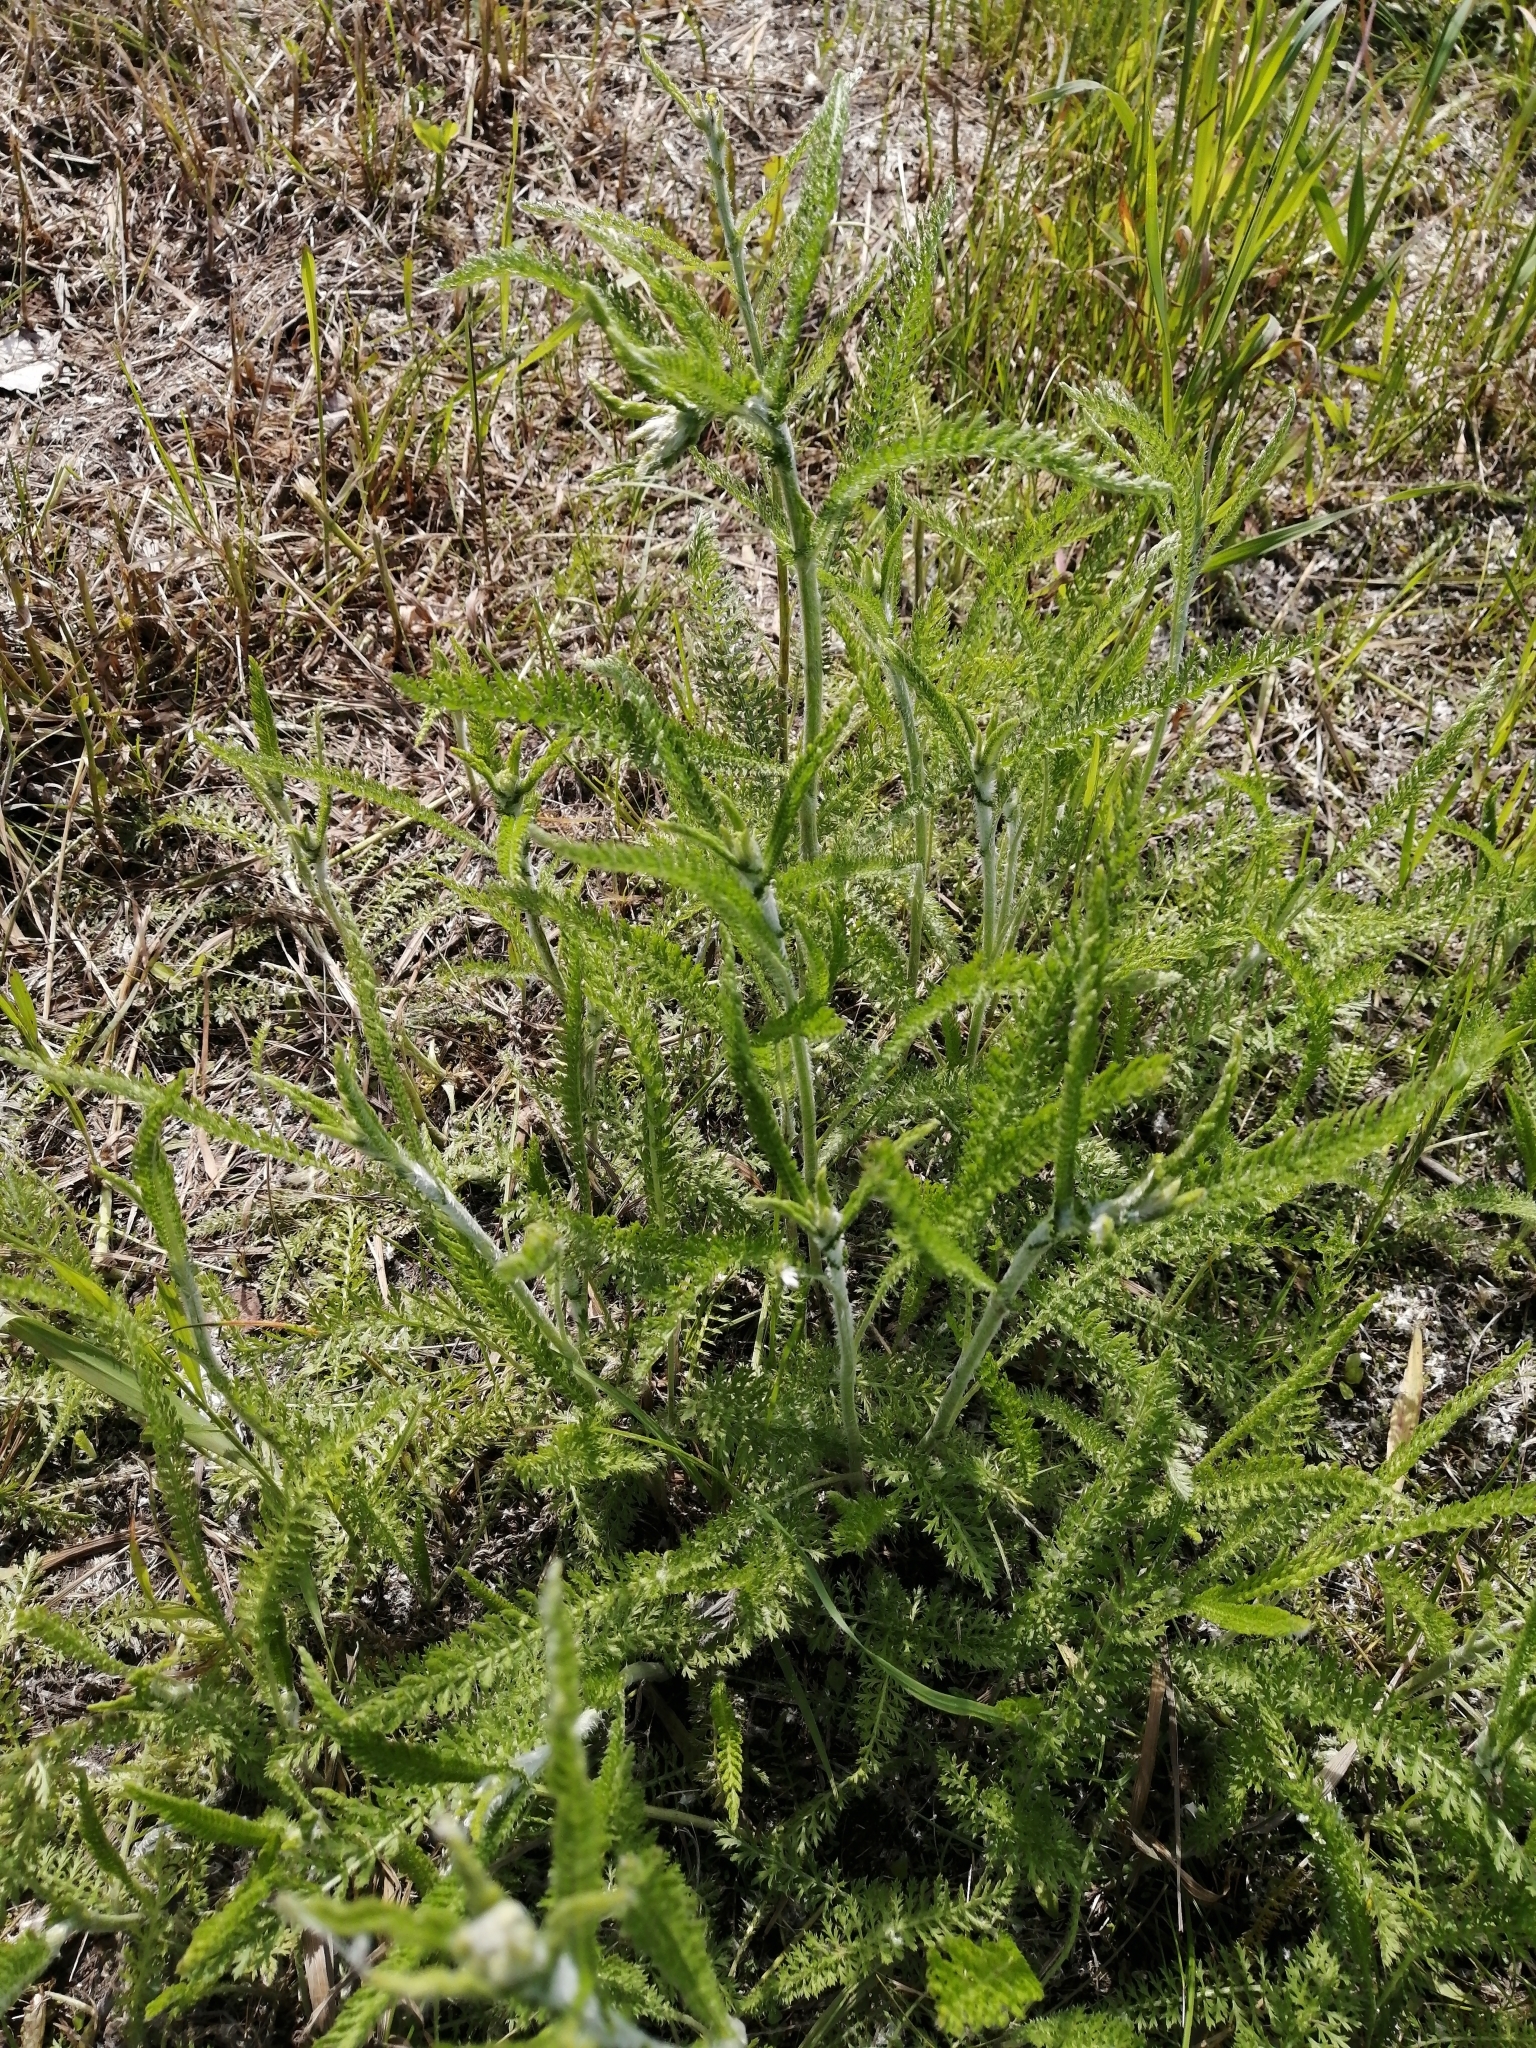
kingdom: Plantae
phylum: Tracheophyta
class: Magnoliopsida
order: Asterales
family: Asteraceae
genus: Achillea
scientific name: Achillea asiatica
